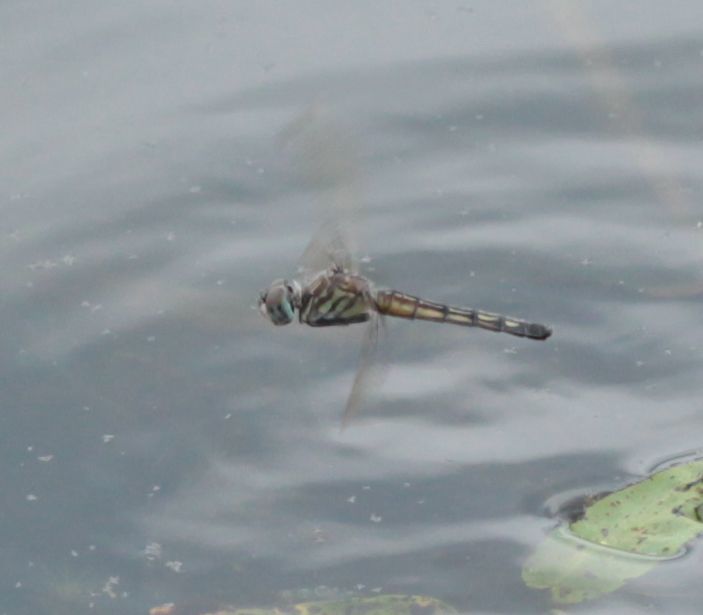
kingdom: Animalia
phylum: Arthropoda
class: Insecta
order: Odonata
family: Libellulidae
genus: Pachydiplax
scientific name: Pachydiplax longipennis
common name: Blue dasher
